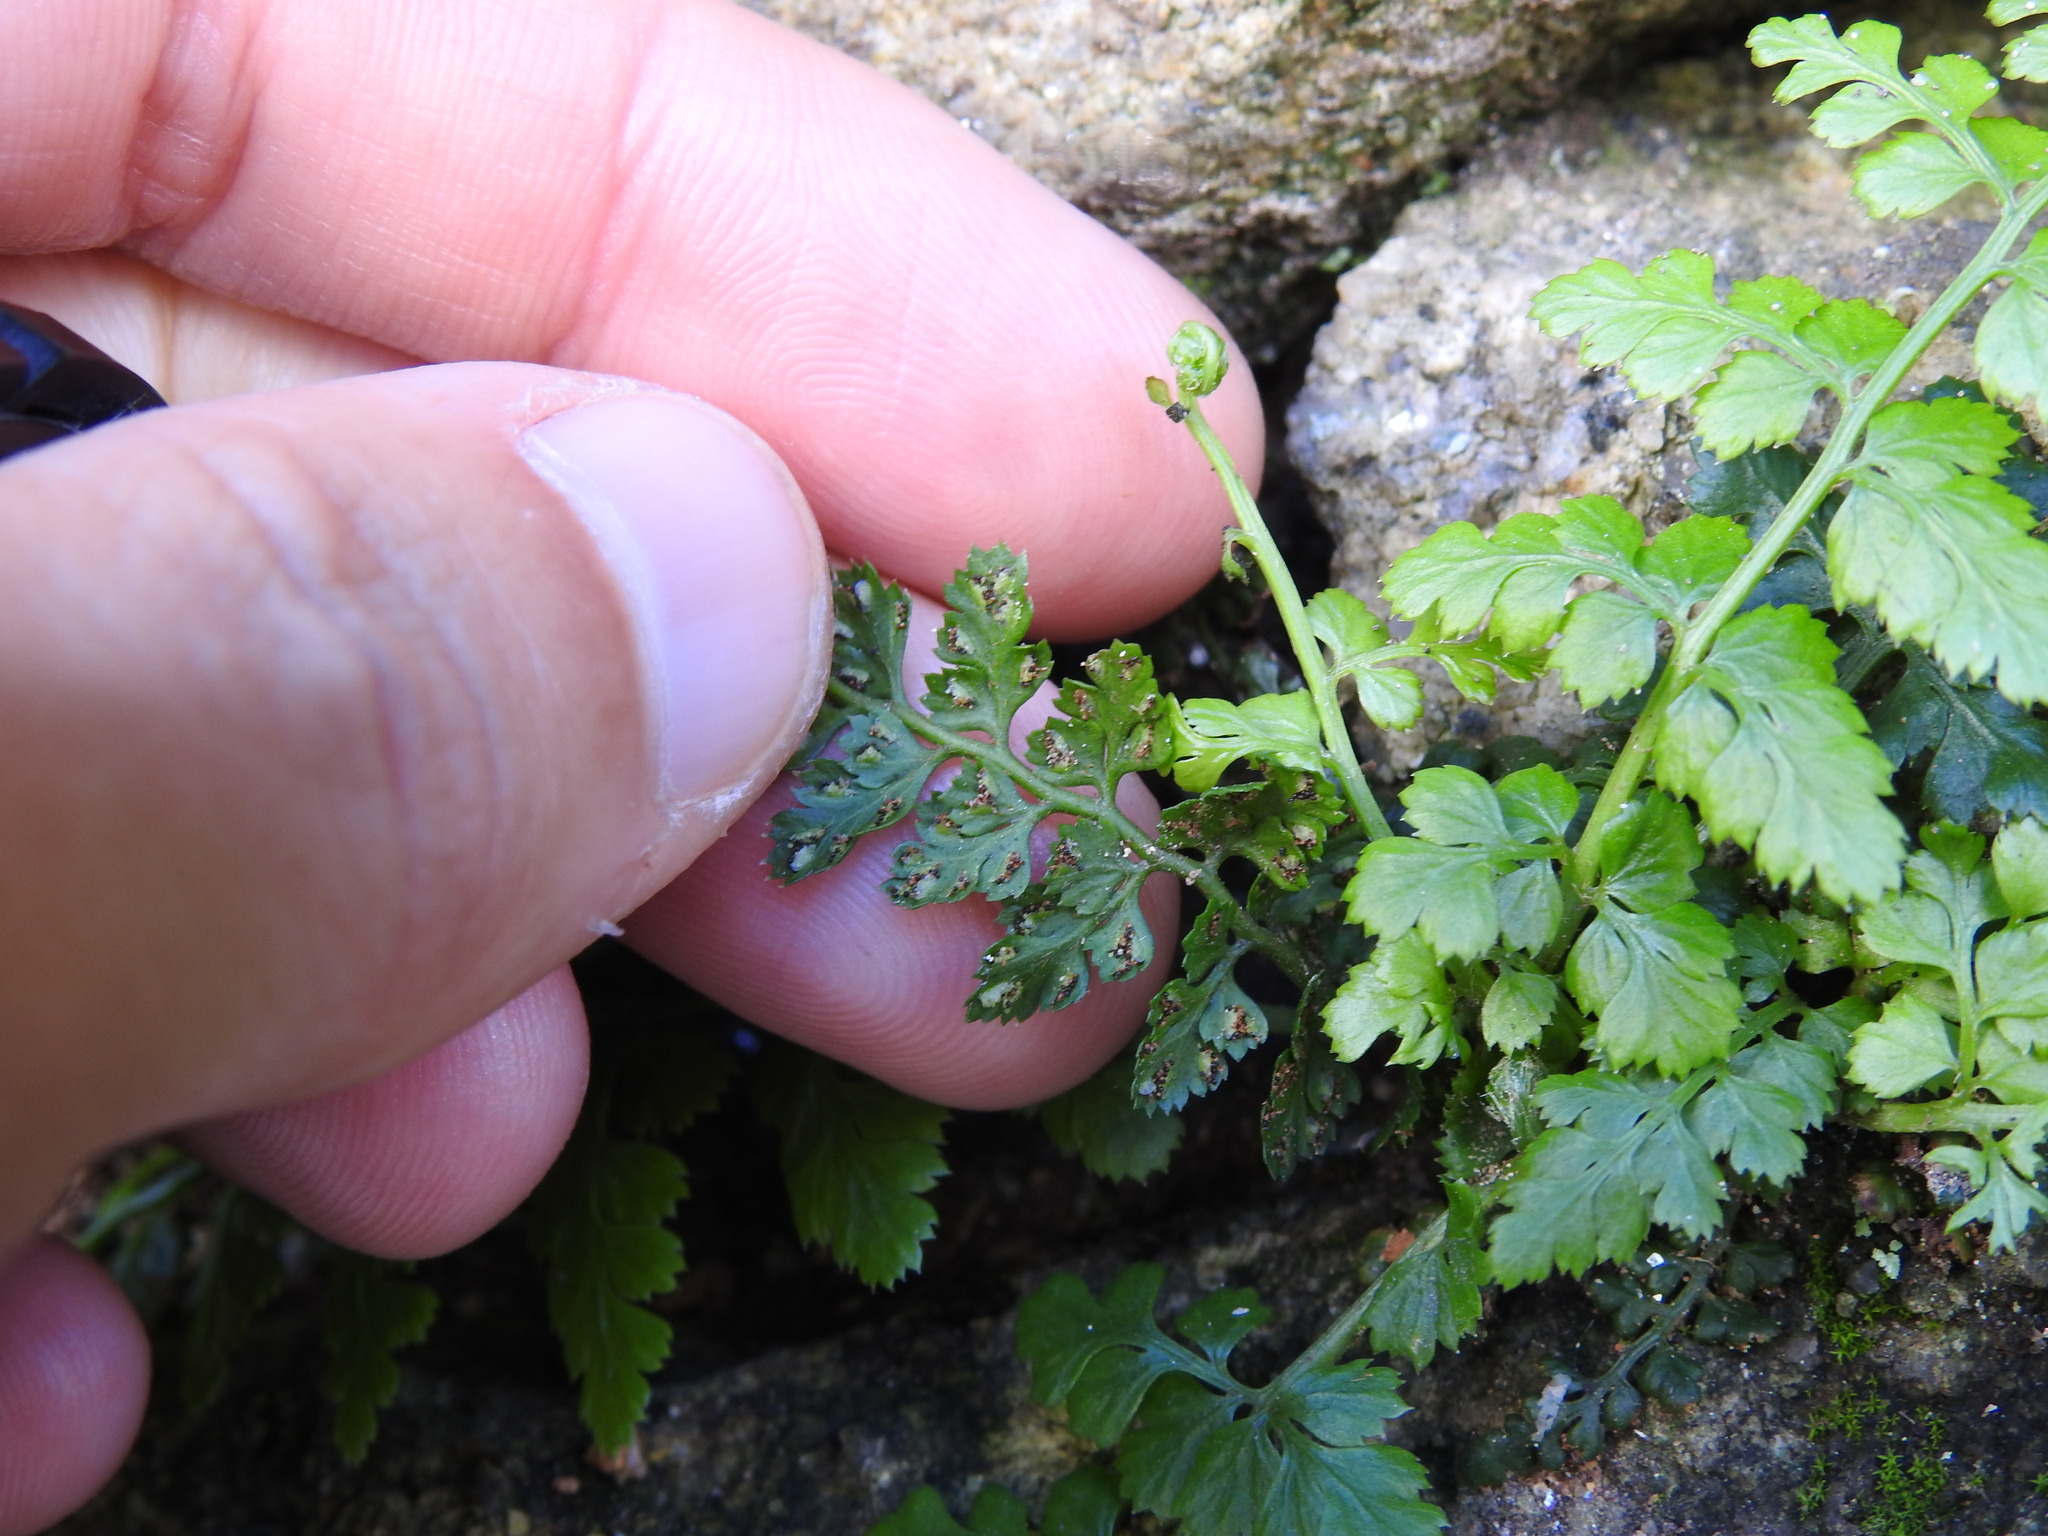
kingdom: Plantae
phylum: Tracheophyta
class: Polypodiopsida
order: Polypodiales
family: Aspleniaceae
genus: Asplenium
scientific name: Asplenium obovatum
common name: Lanceolate spleenwort
